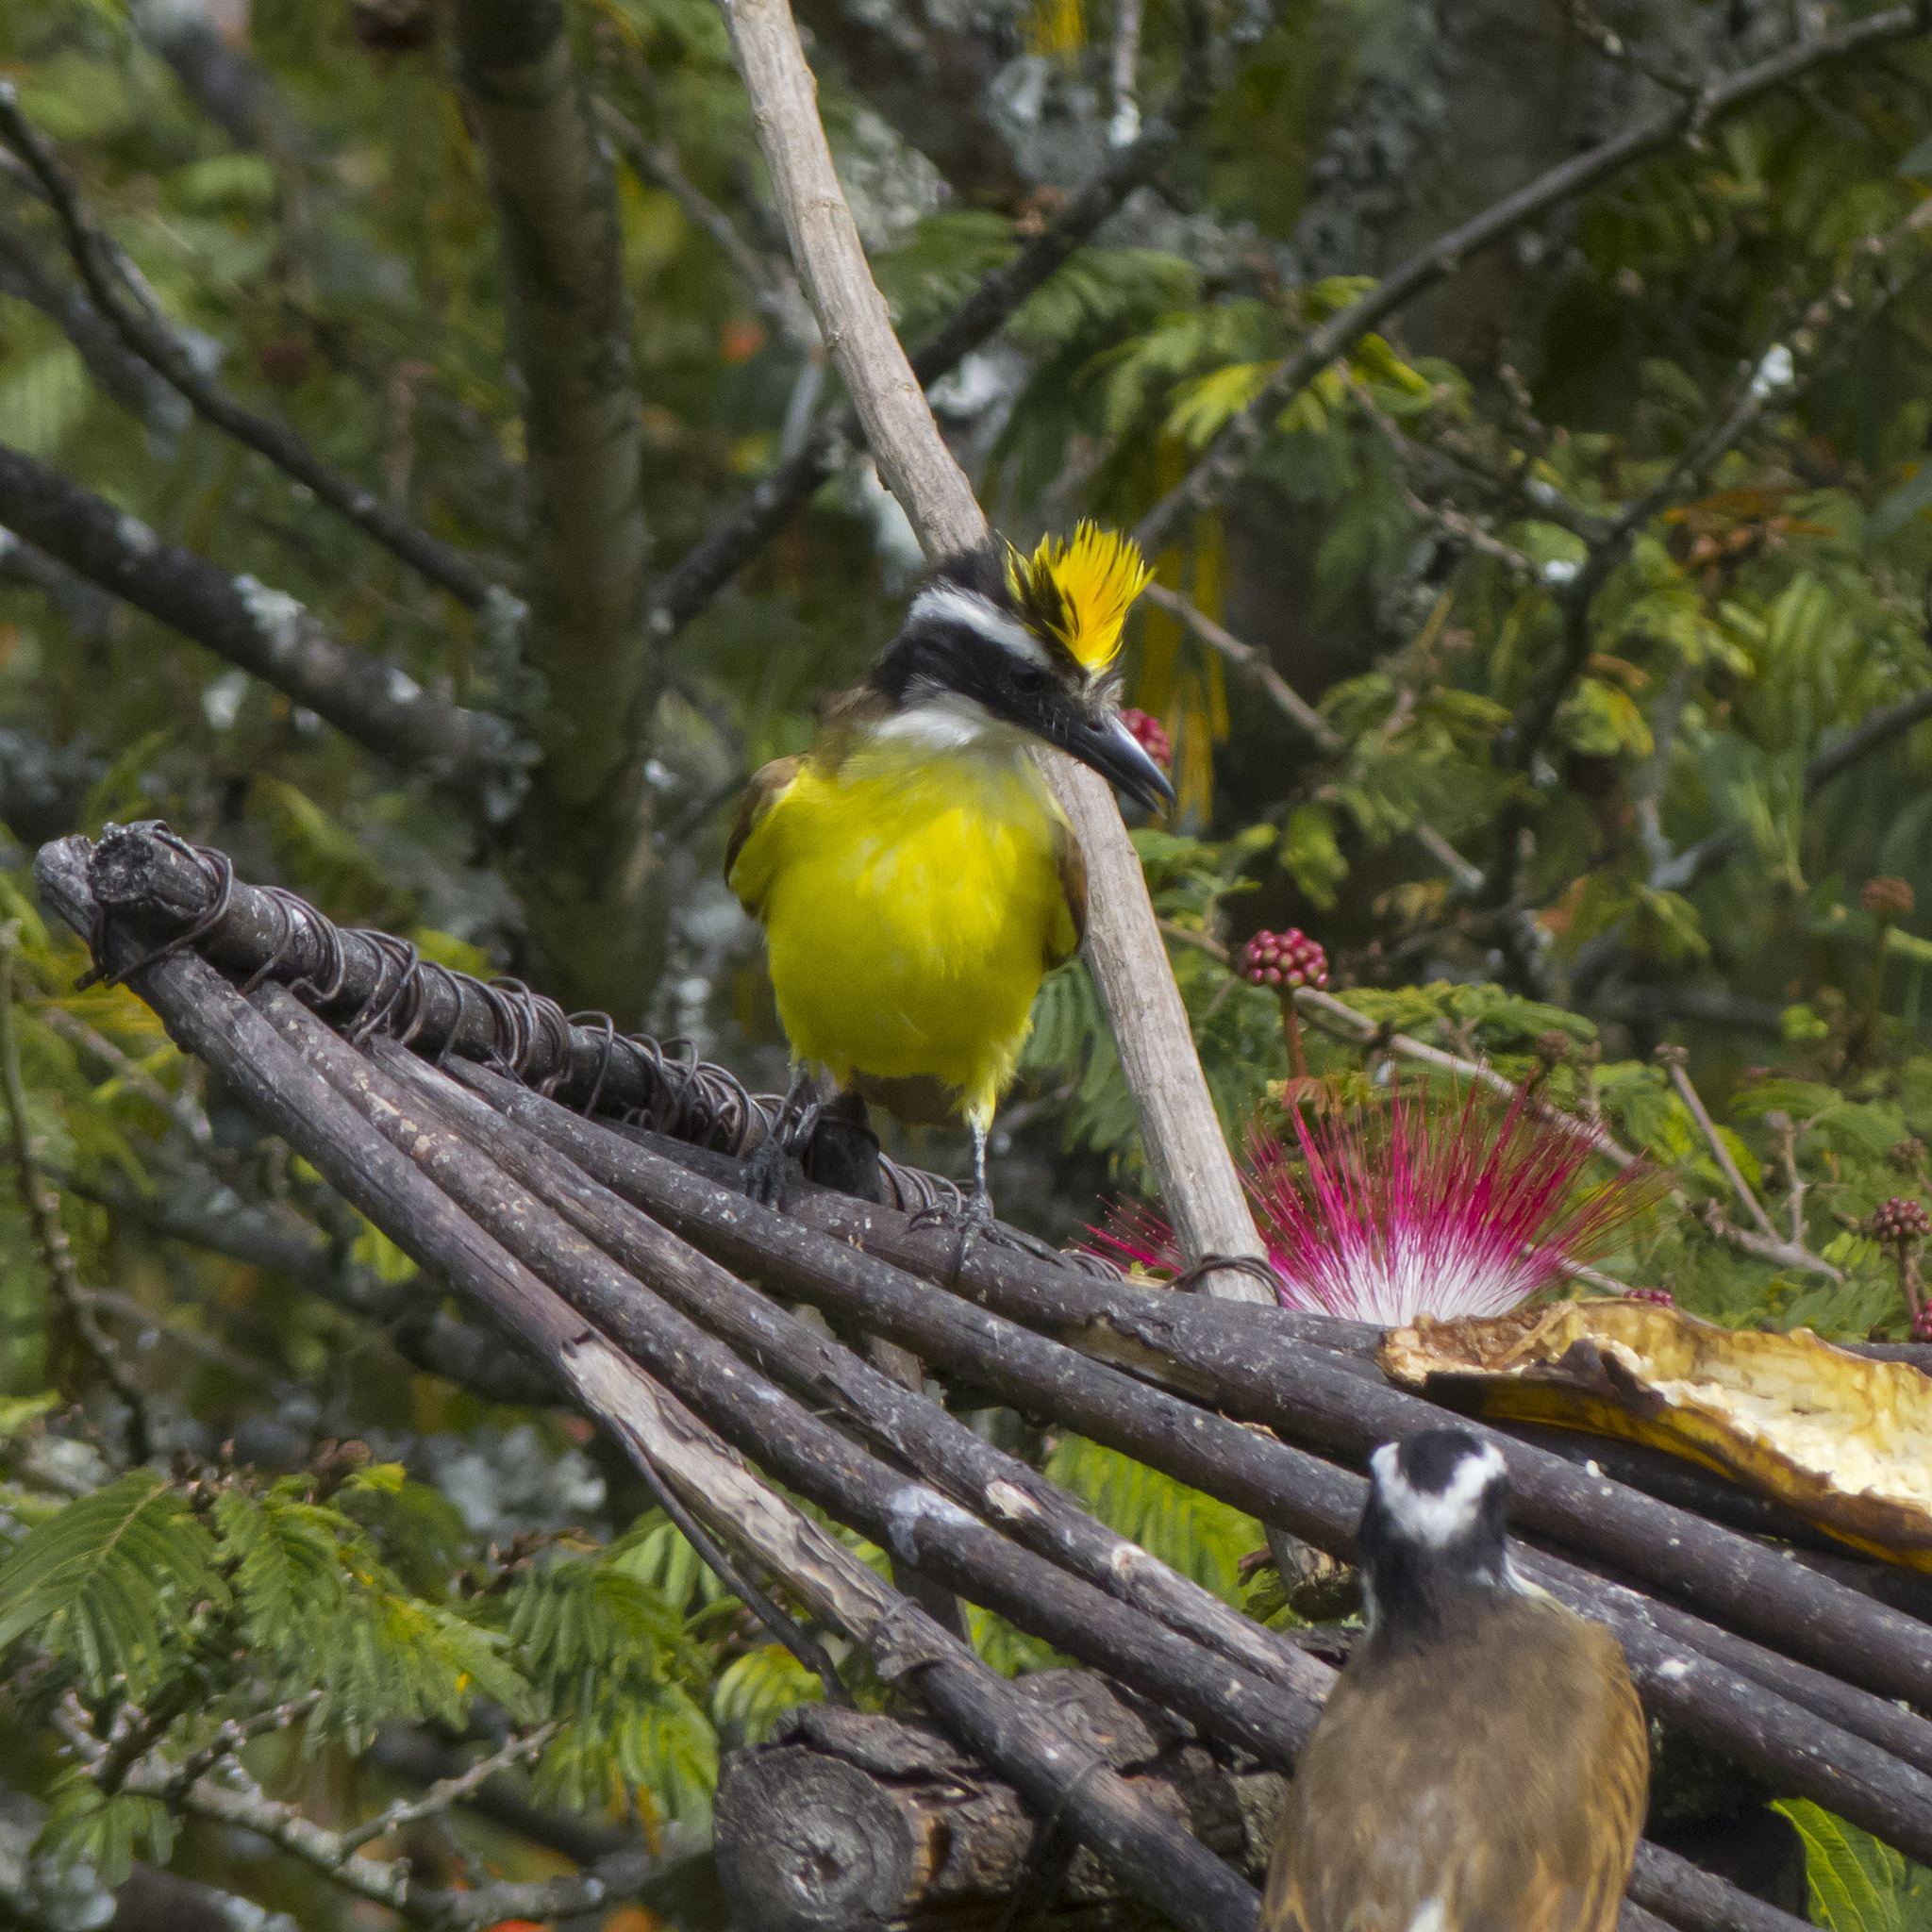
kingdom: Animalia
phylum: Chordata
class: Aves
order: Passeriformes
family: Tyrannidae
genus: Pitangus
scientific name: Pitangus sulphuratus
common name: Great kiskadee
